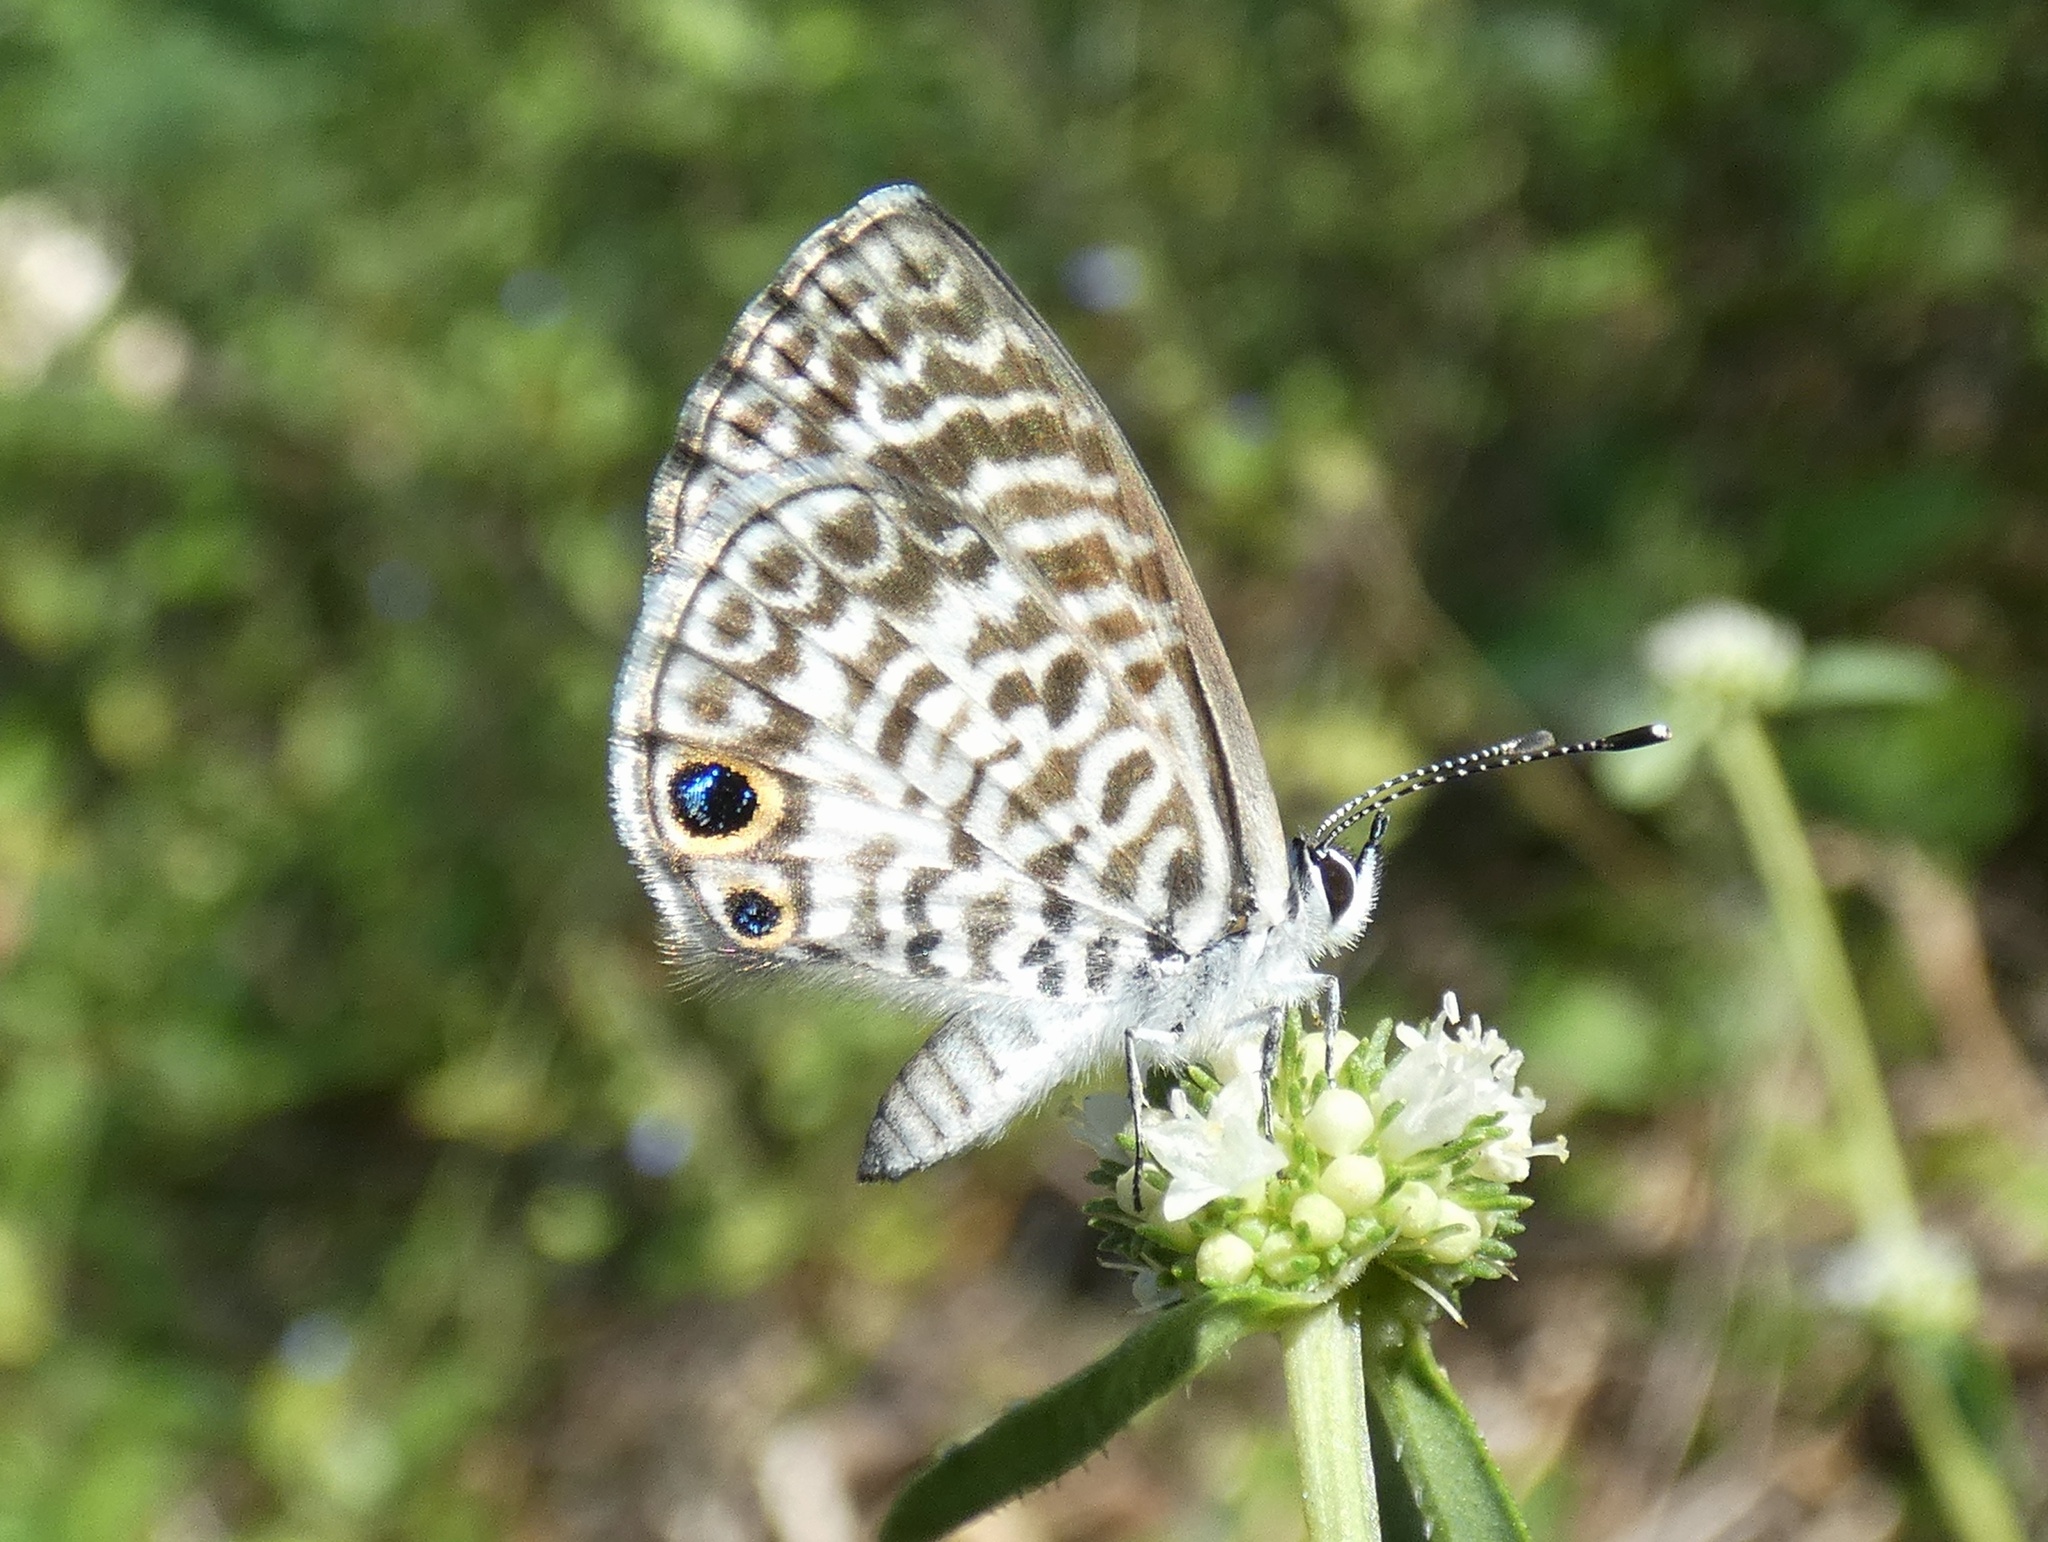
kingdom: Animalia
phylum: Arthropoda
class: Insecta
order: Lepidoptera
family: Lycaenidae
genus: Leptotes
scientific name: Leptotes cassius
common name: Cassius blue
